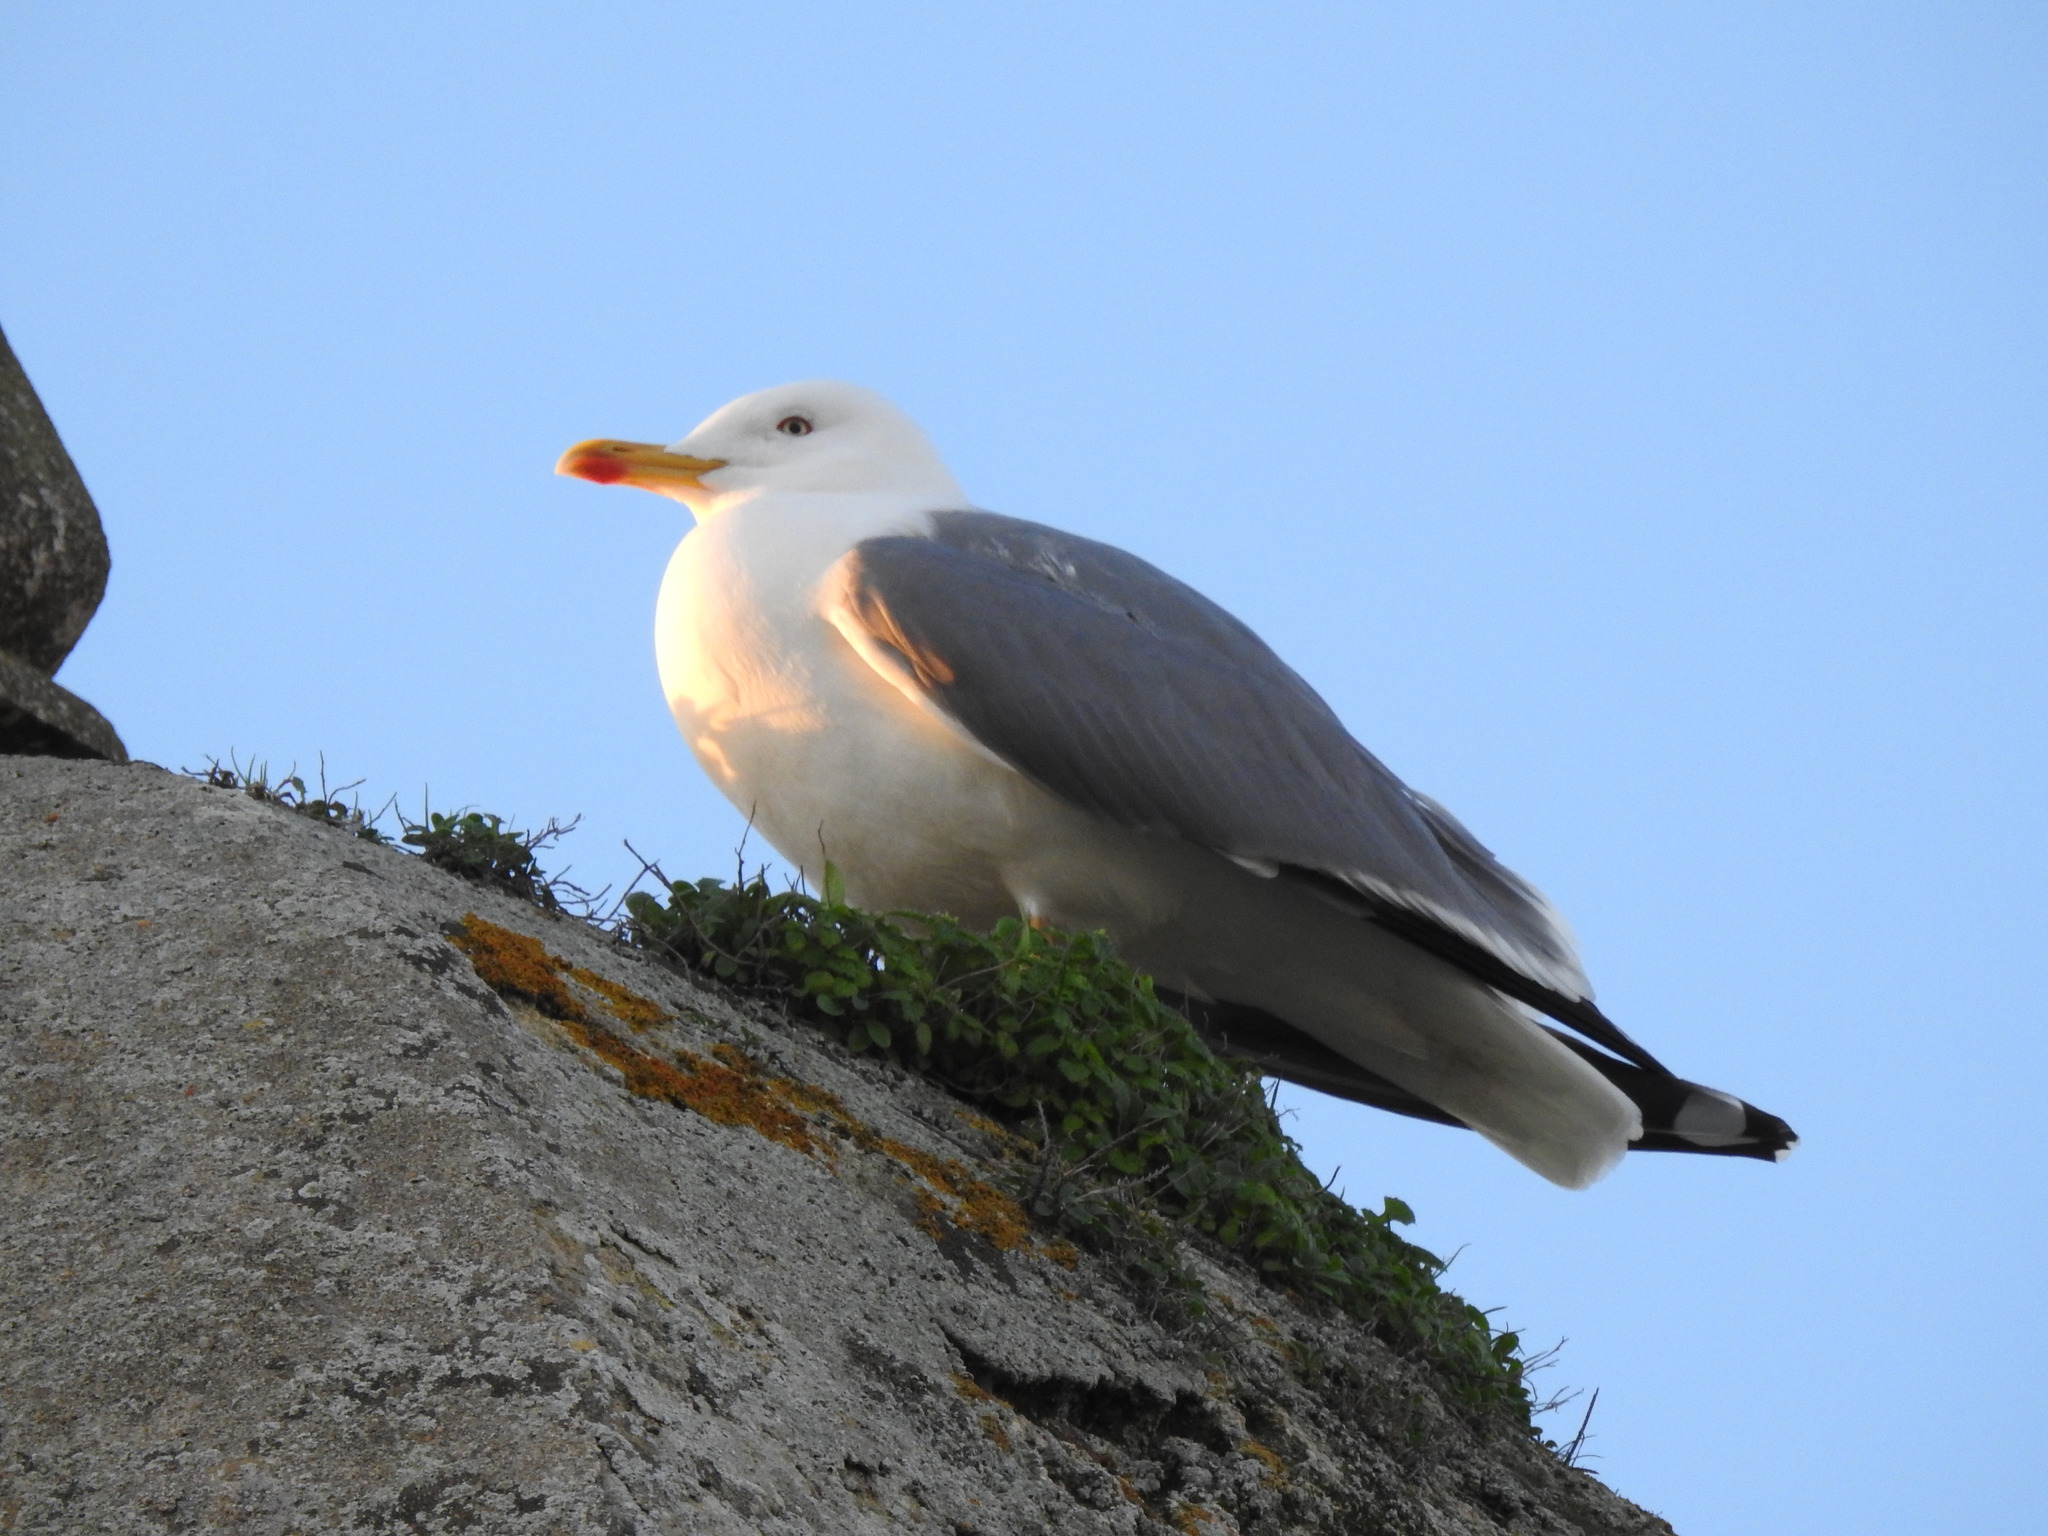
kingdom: Animalia
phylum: Chordata
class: Aves
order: Charadriiformes
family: Laridae
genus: Larus
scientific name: Larus michahellis
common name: Yellow-legged gull
